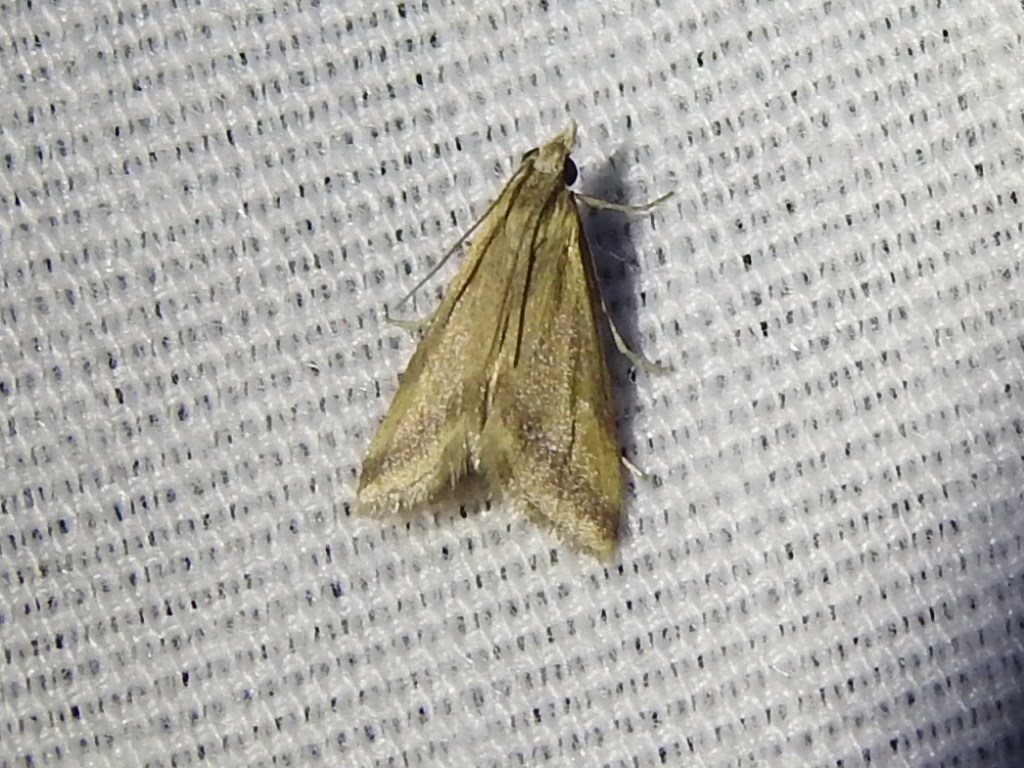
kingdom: Animalia
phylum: Arthropoda
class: Insecta
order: Lepidoptera
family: Crambidae
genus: Microtheoris
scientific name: Microtheoris vibicalis
